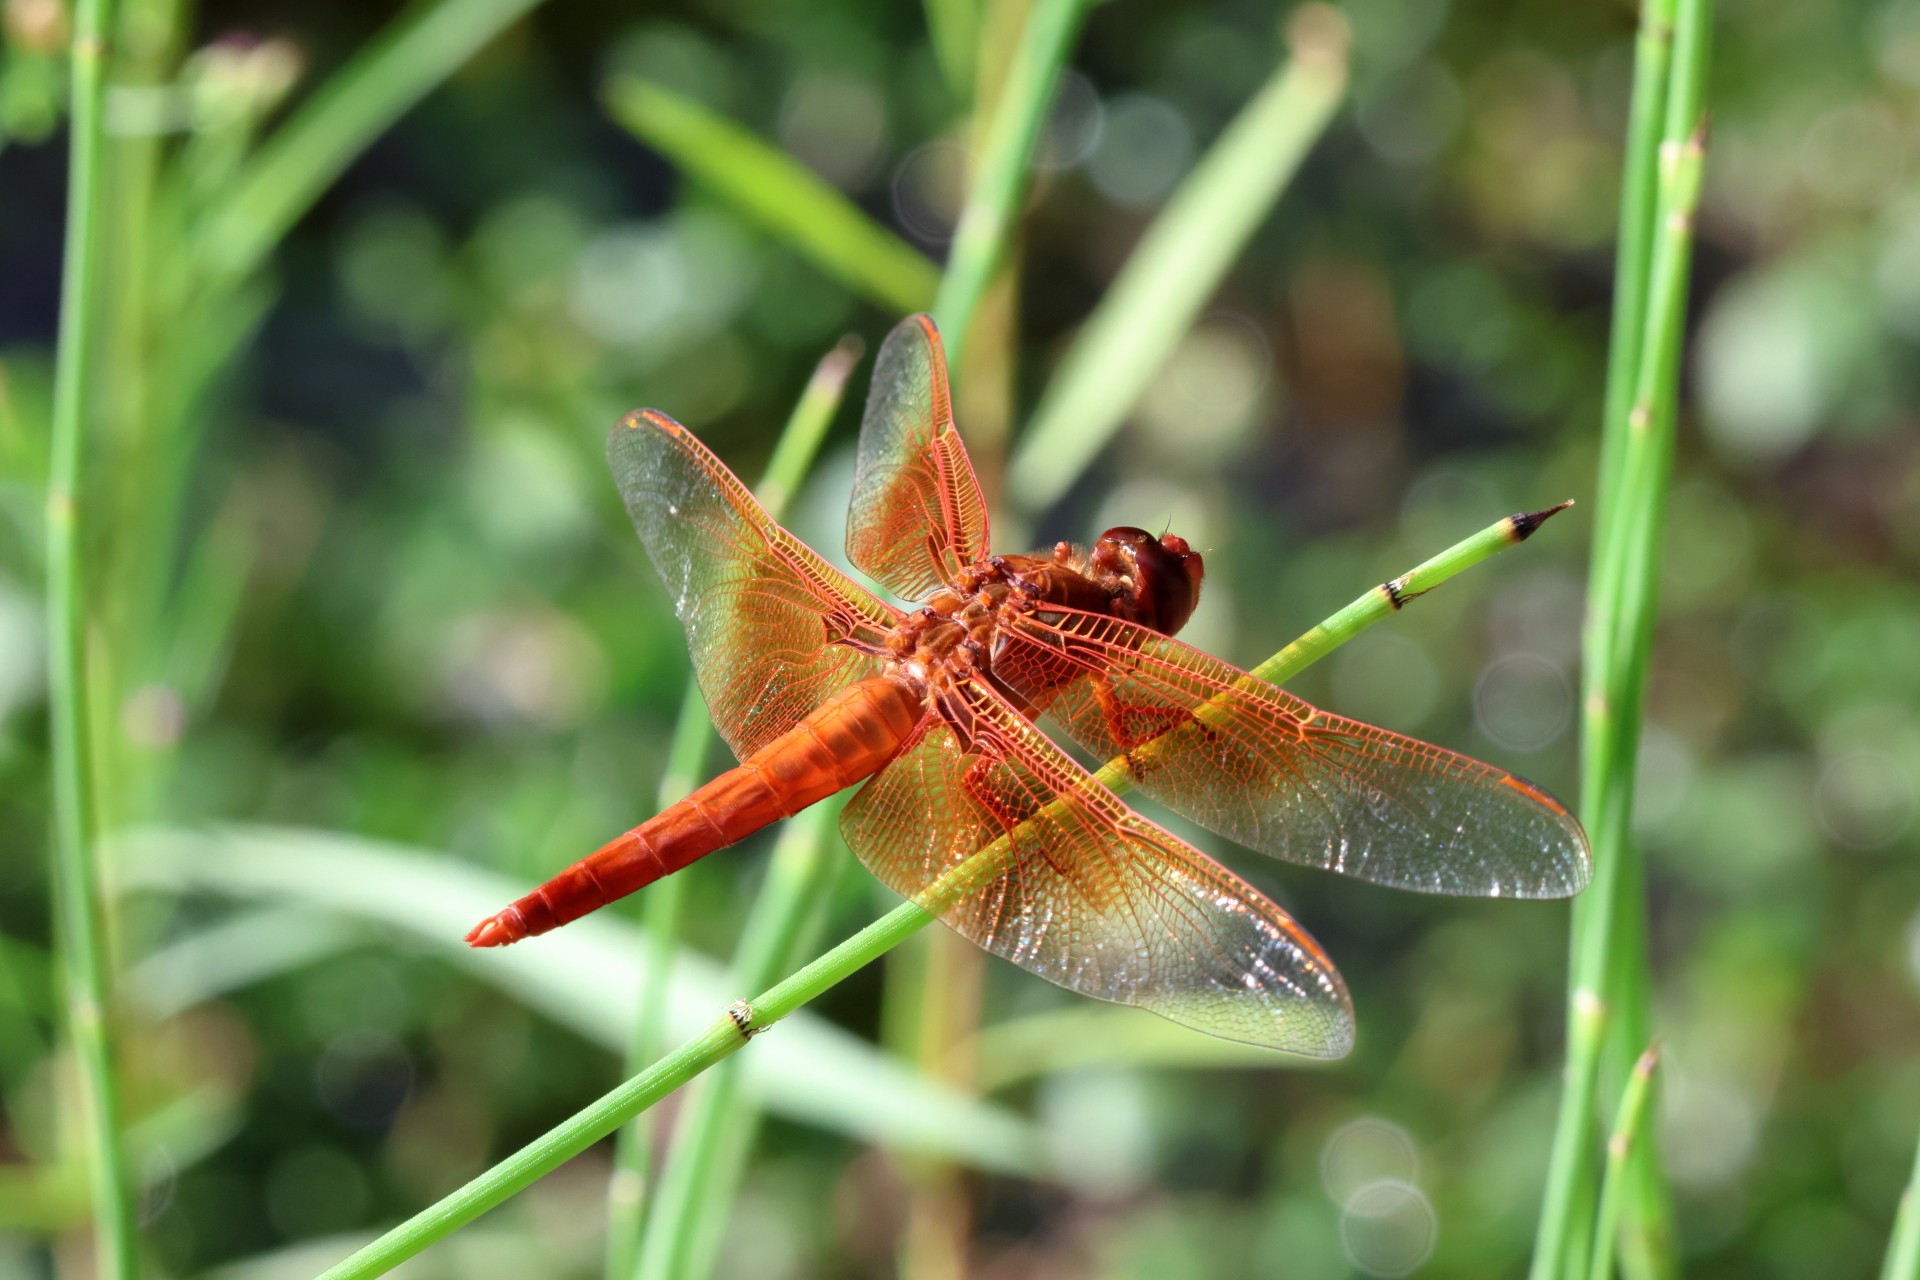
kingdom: Animalia
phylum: Arthropoda
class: Insecta
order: Odonata
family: Libellulidae
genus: Libellula
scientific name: Libellula saturata
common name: Flame skimmer
